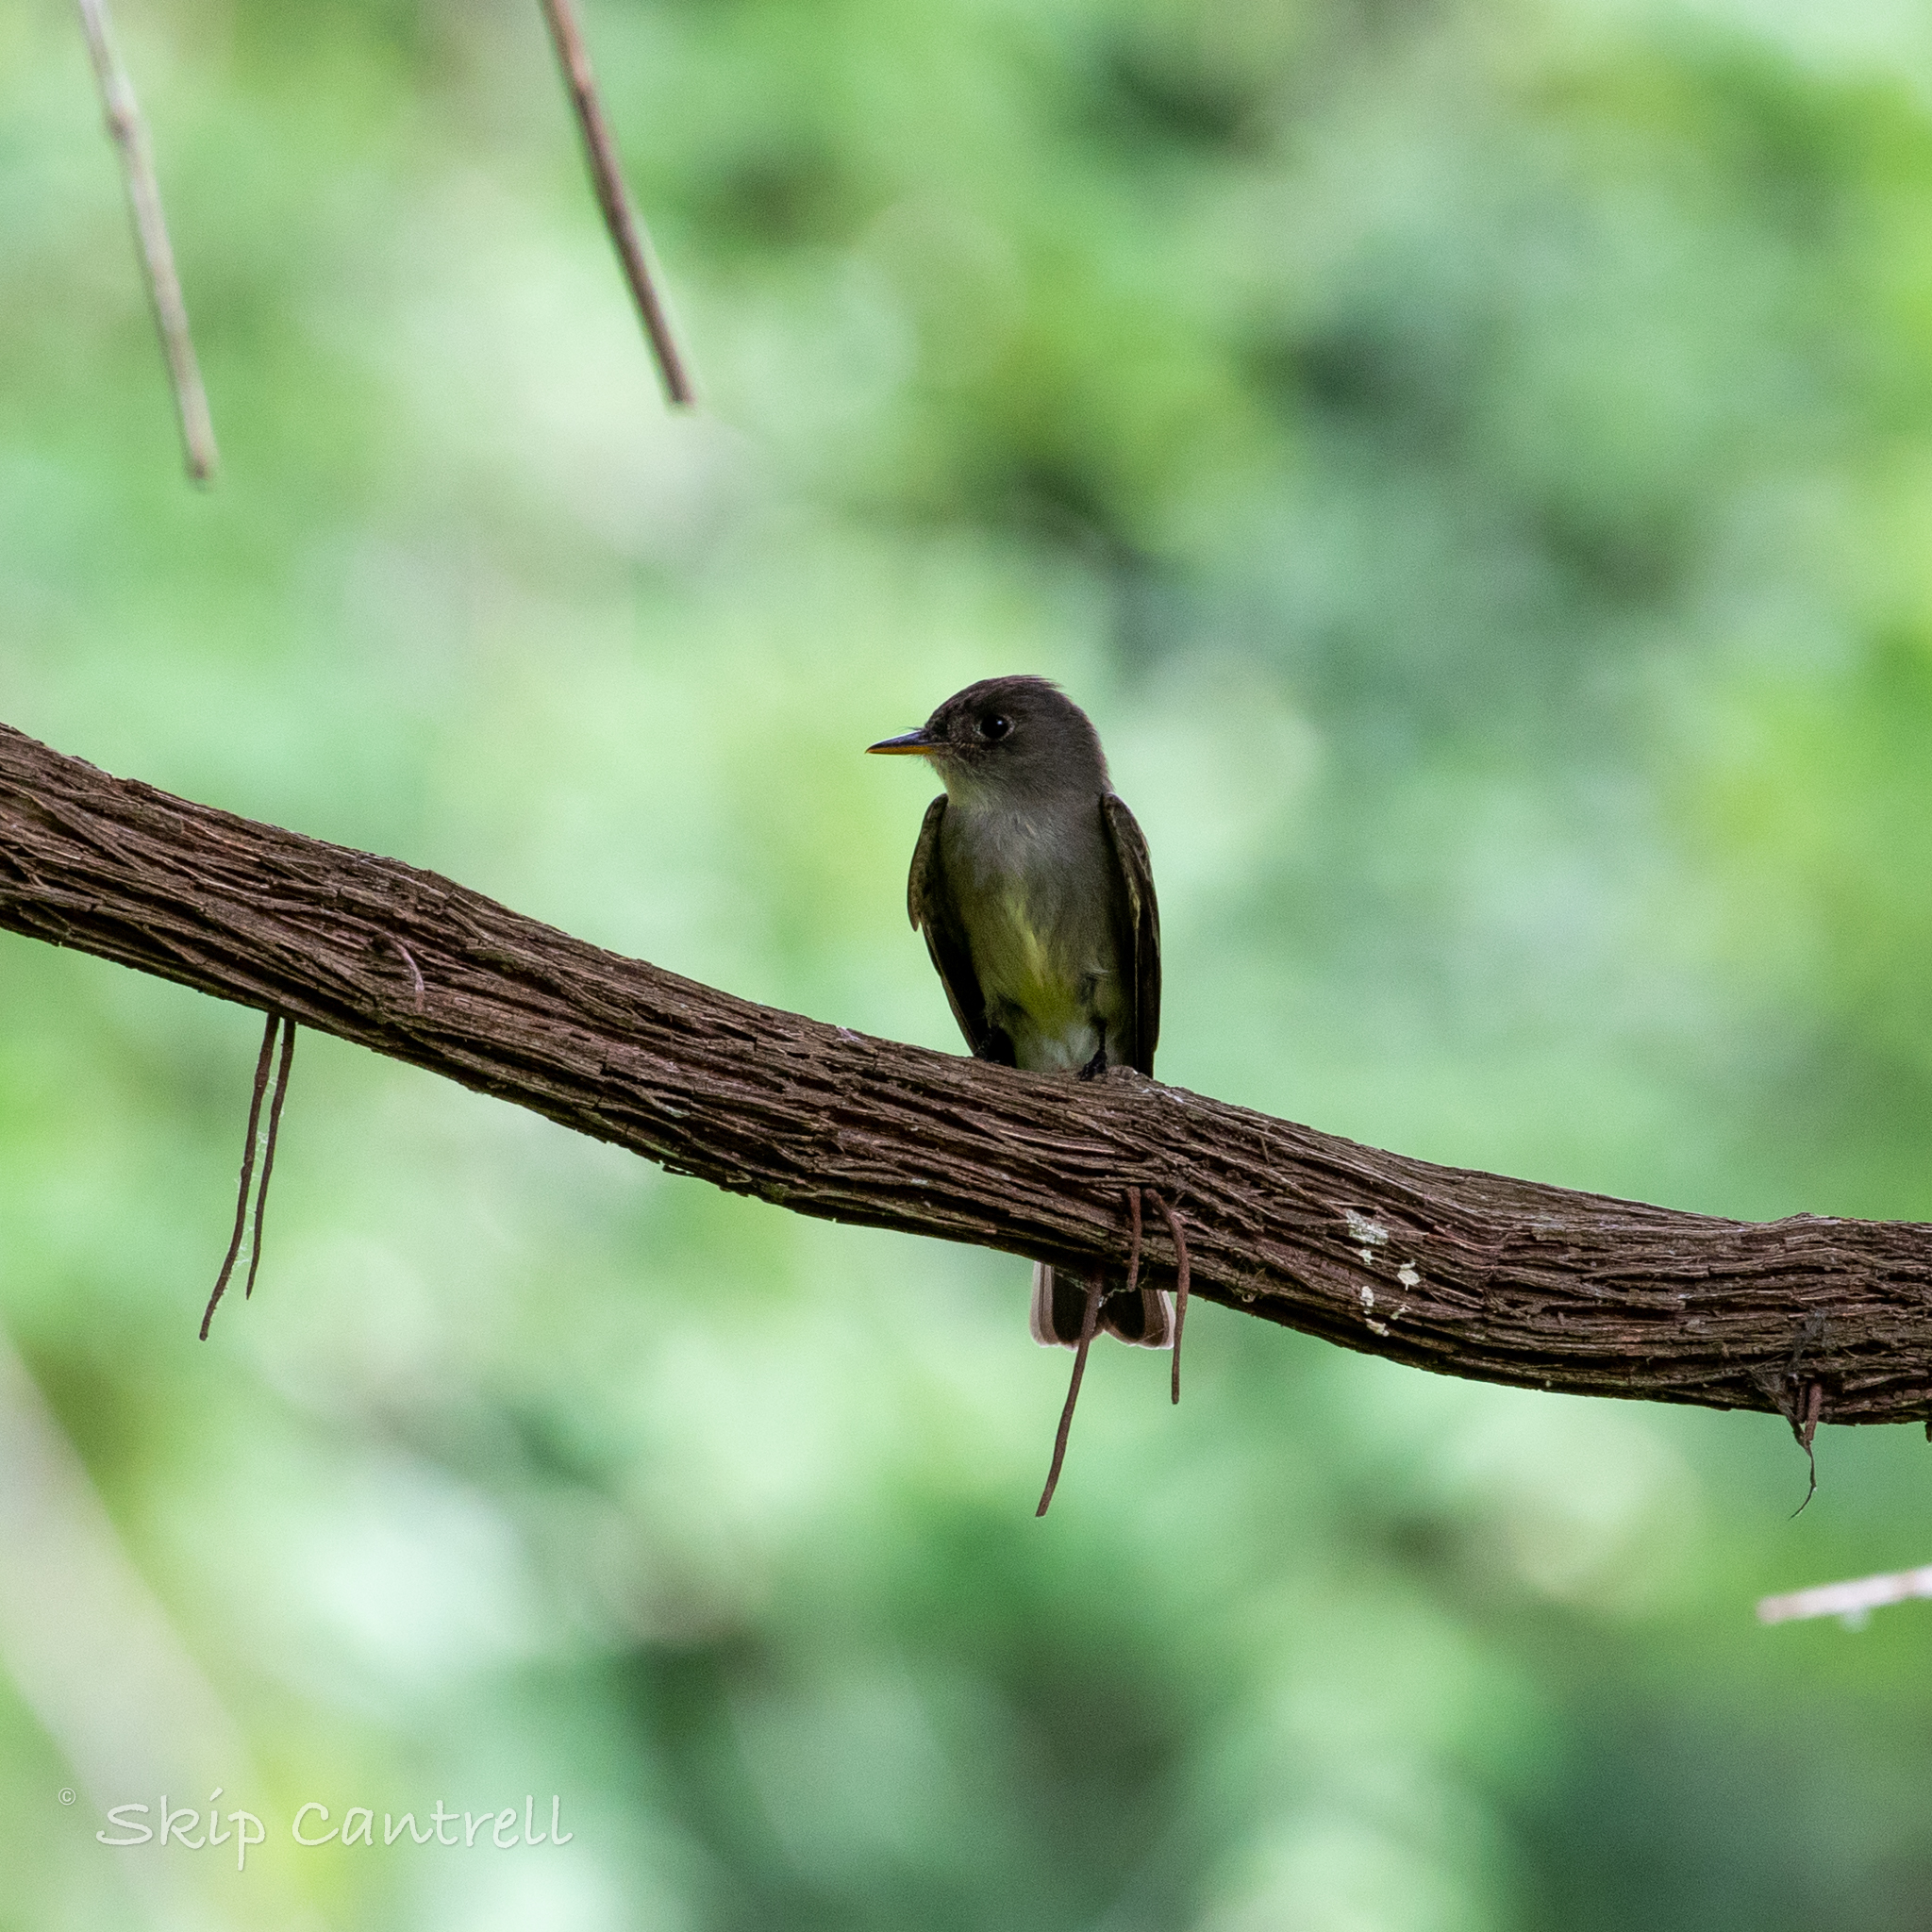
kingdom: Animalia
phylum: Chordata
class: Aves
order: Passeriformes
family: Tyrannidae
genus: Contopus
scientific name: Contopus virens
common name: Eastern wood-pewee
